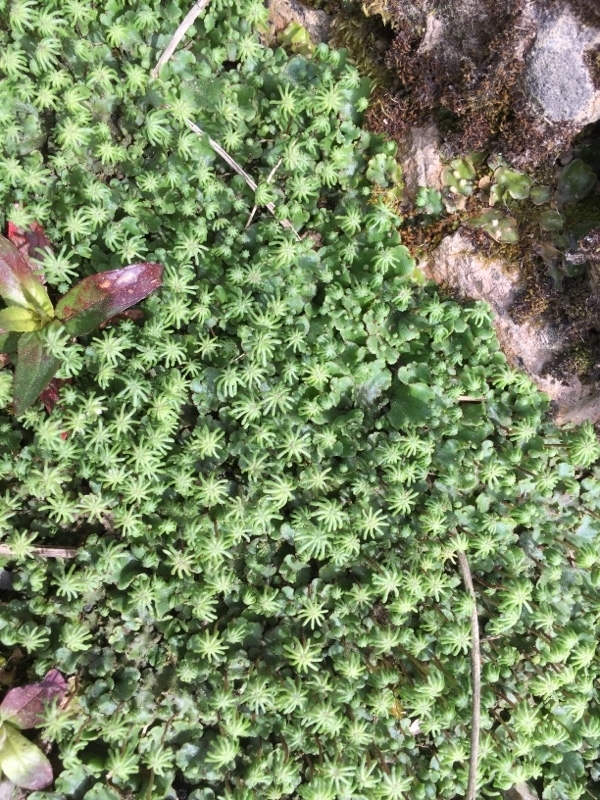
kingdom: Plantae
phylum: Marchantiophyta
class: Marchantiopsida
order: Marchantiales
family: Marchantiaceae
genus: Marchantia
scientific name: Marchantia polymorpha
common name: Common liverwort
